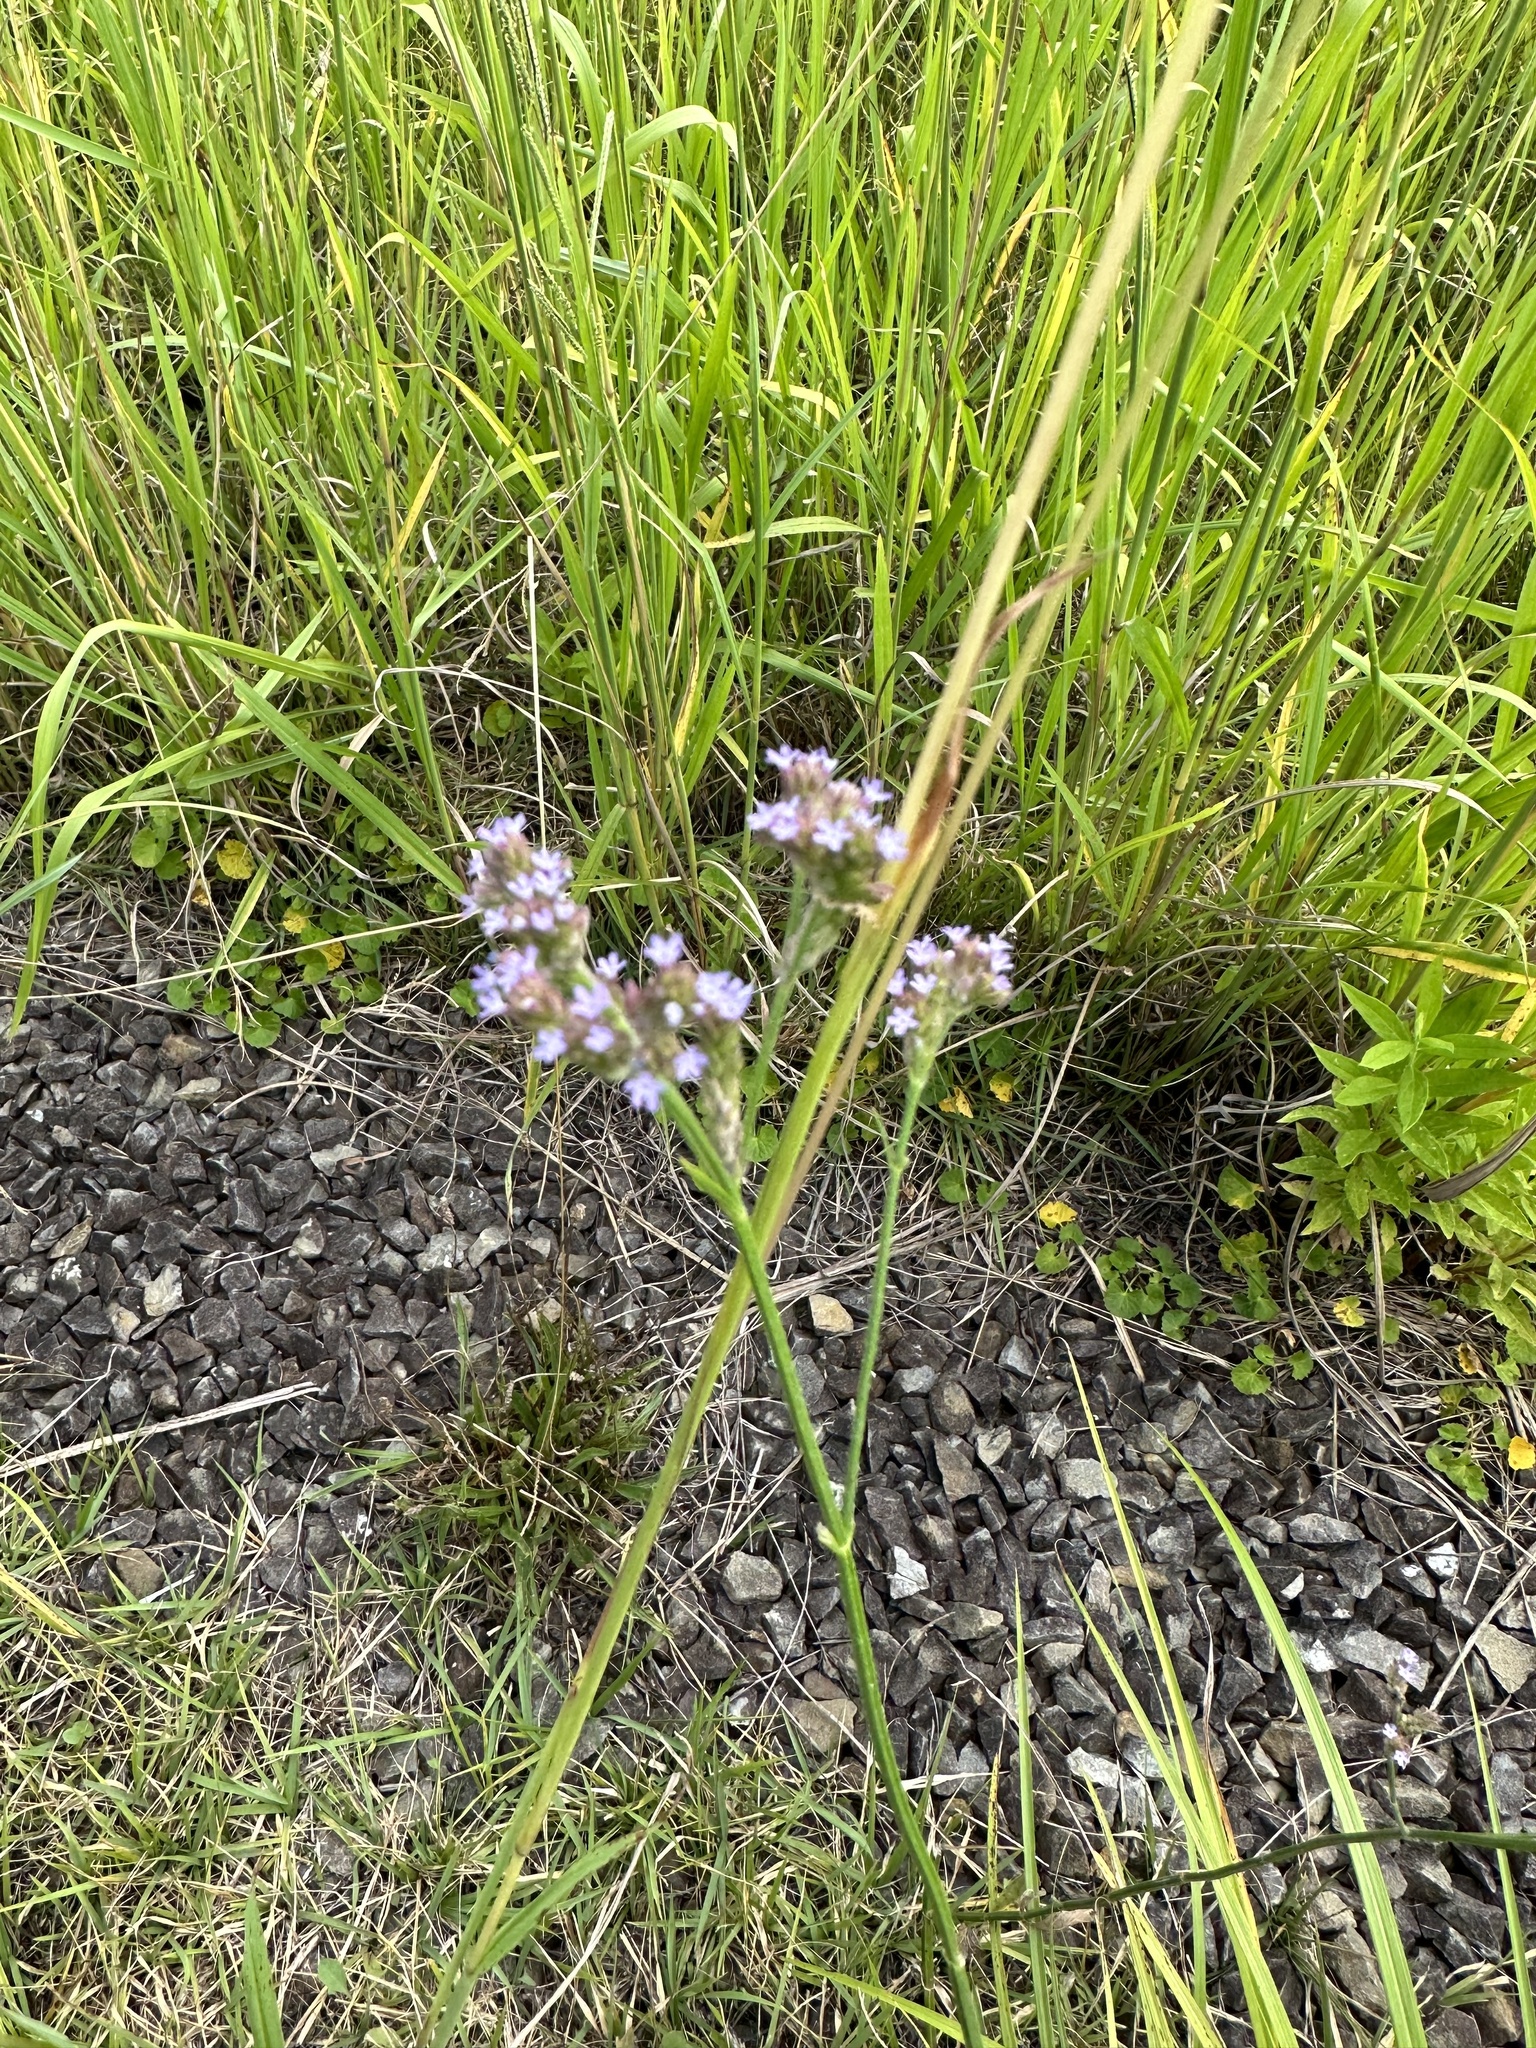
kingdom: Plantae
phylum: Tracheophyta
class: Magnoliopsida
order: Lamiales
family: Verbenaceae
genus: Verbena
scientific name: Verbena brasiliensis
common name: Brazilian vervain
